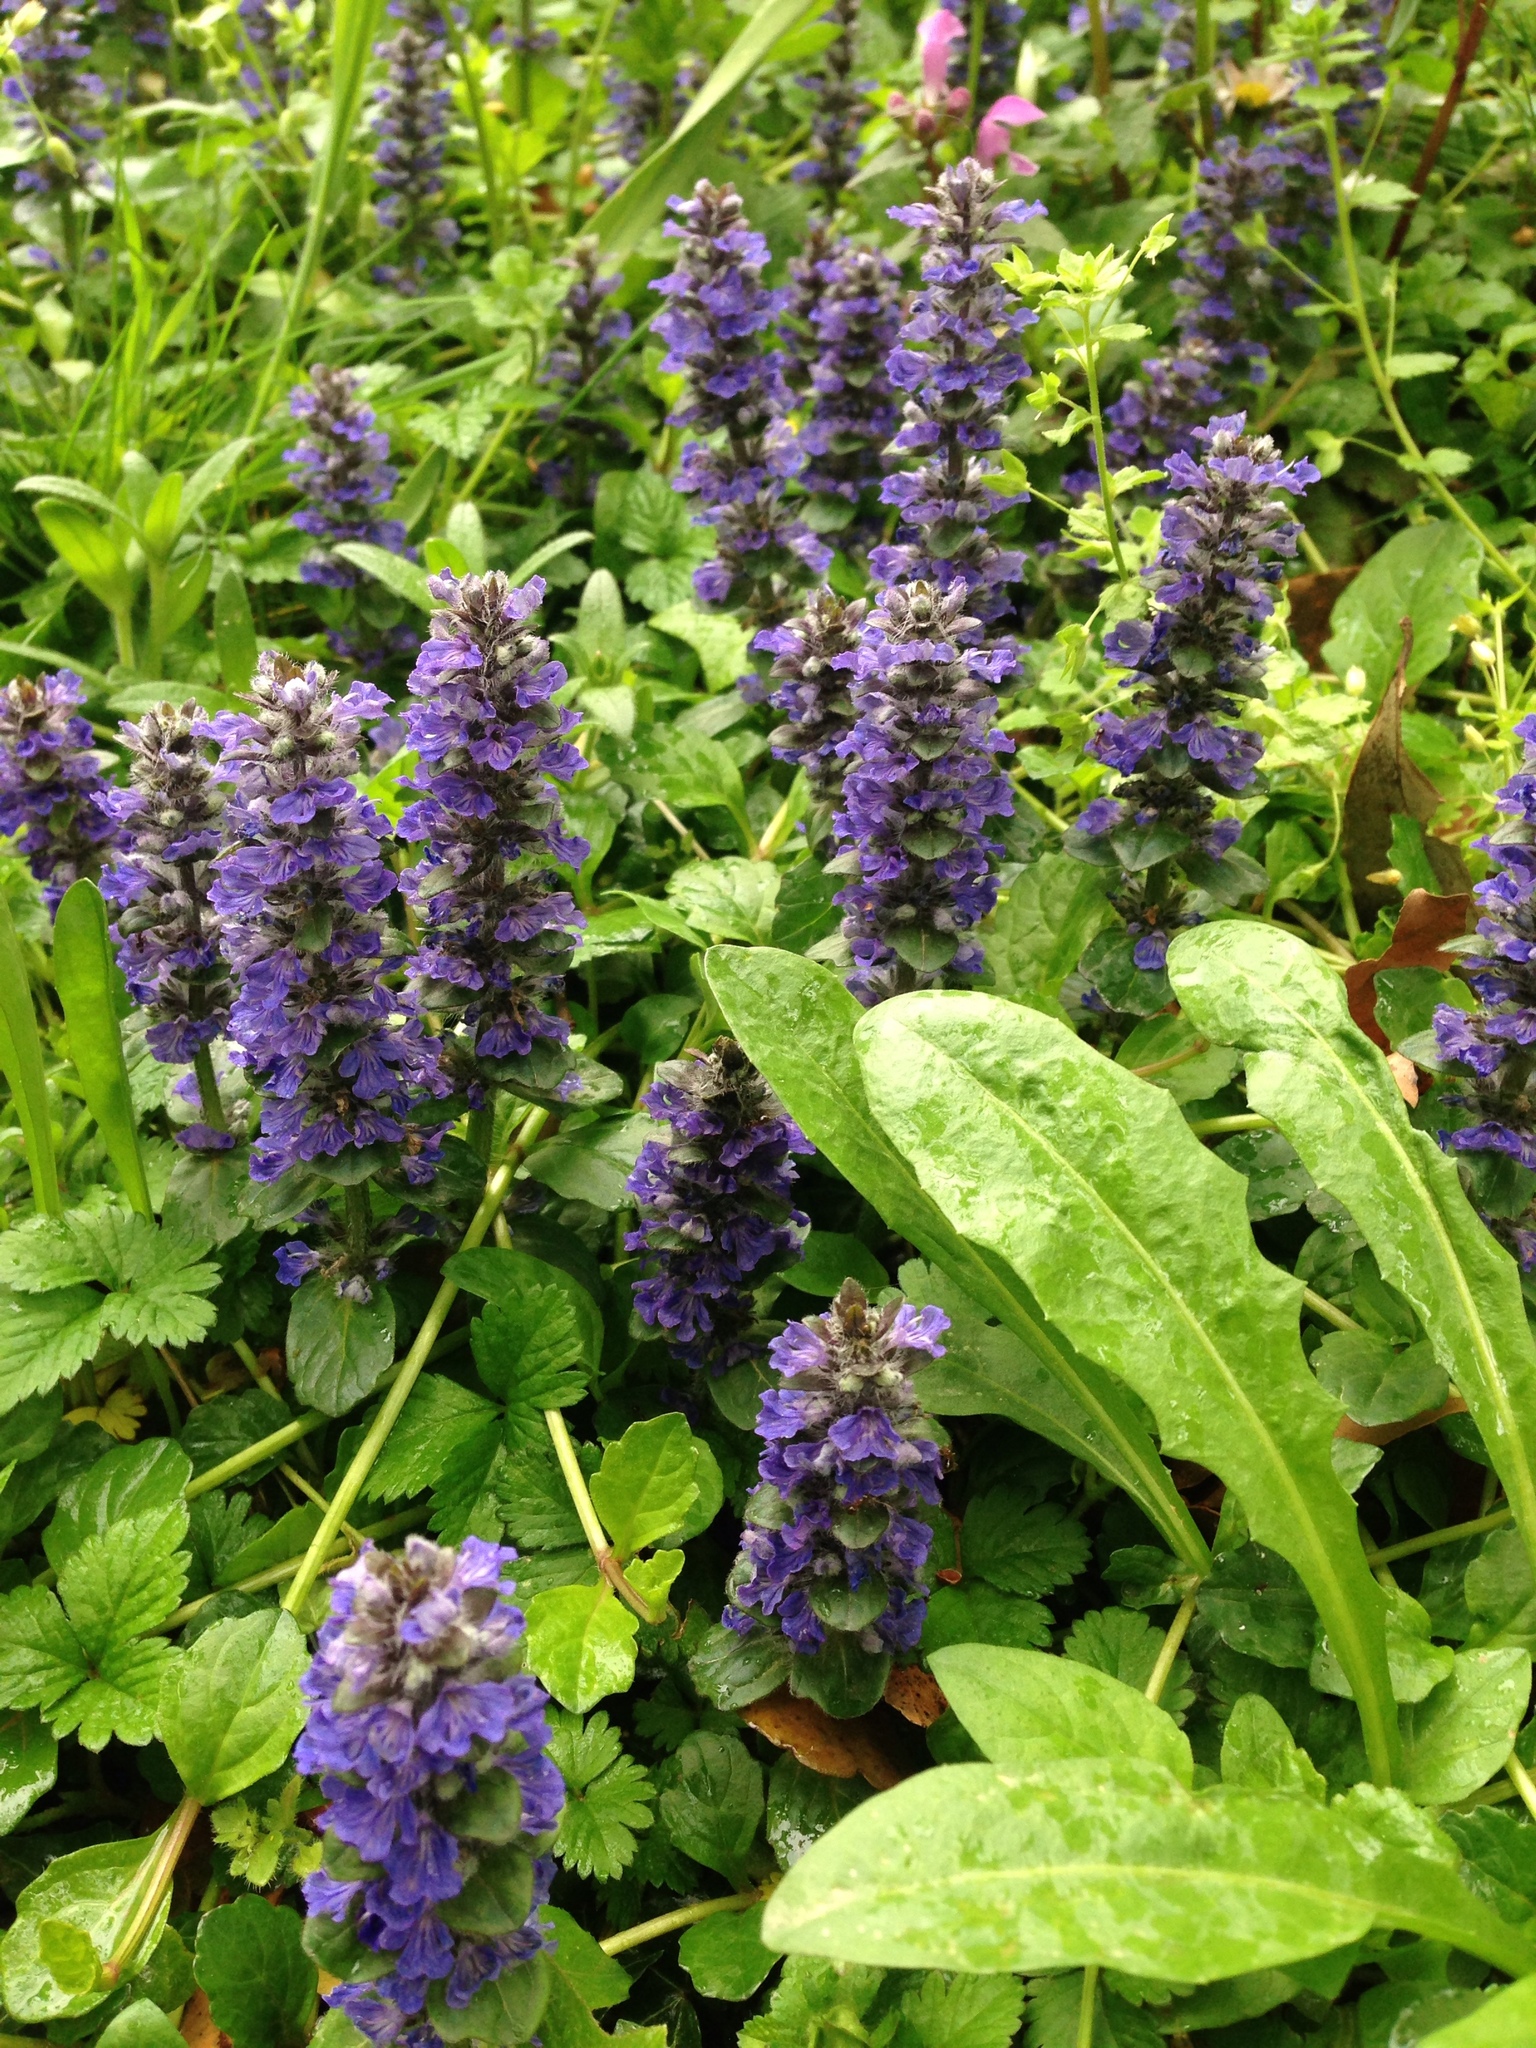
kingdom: Plantae
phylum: Tracheophyta
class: Magnoliopsida
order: Lamiales
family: Lamiaceae
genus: Ajuga
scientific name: Ajuga reptans
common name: Bugle
